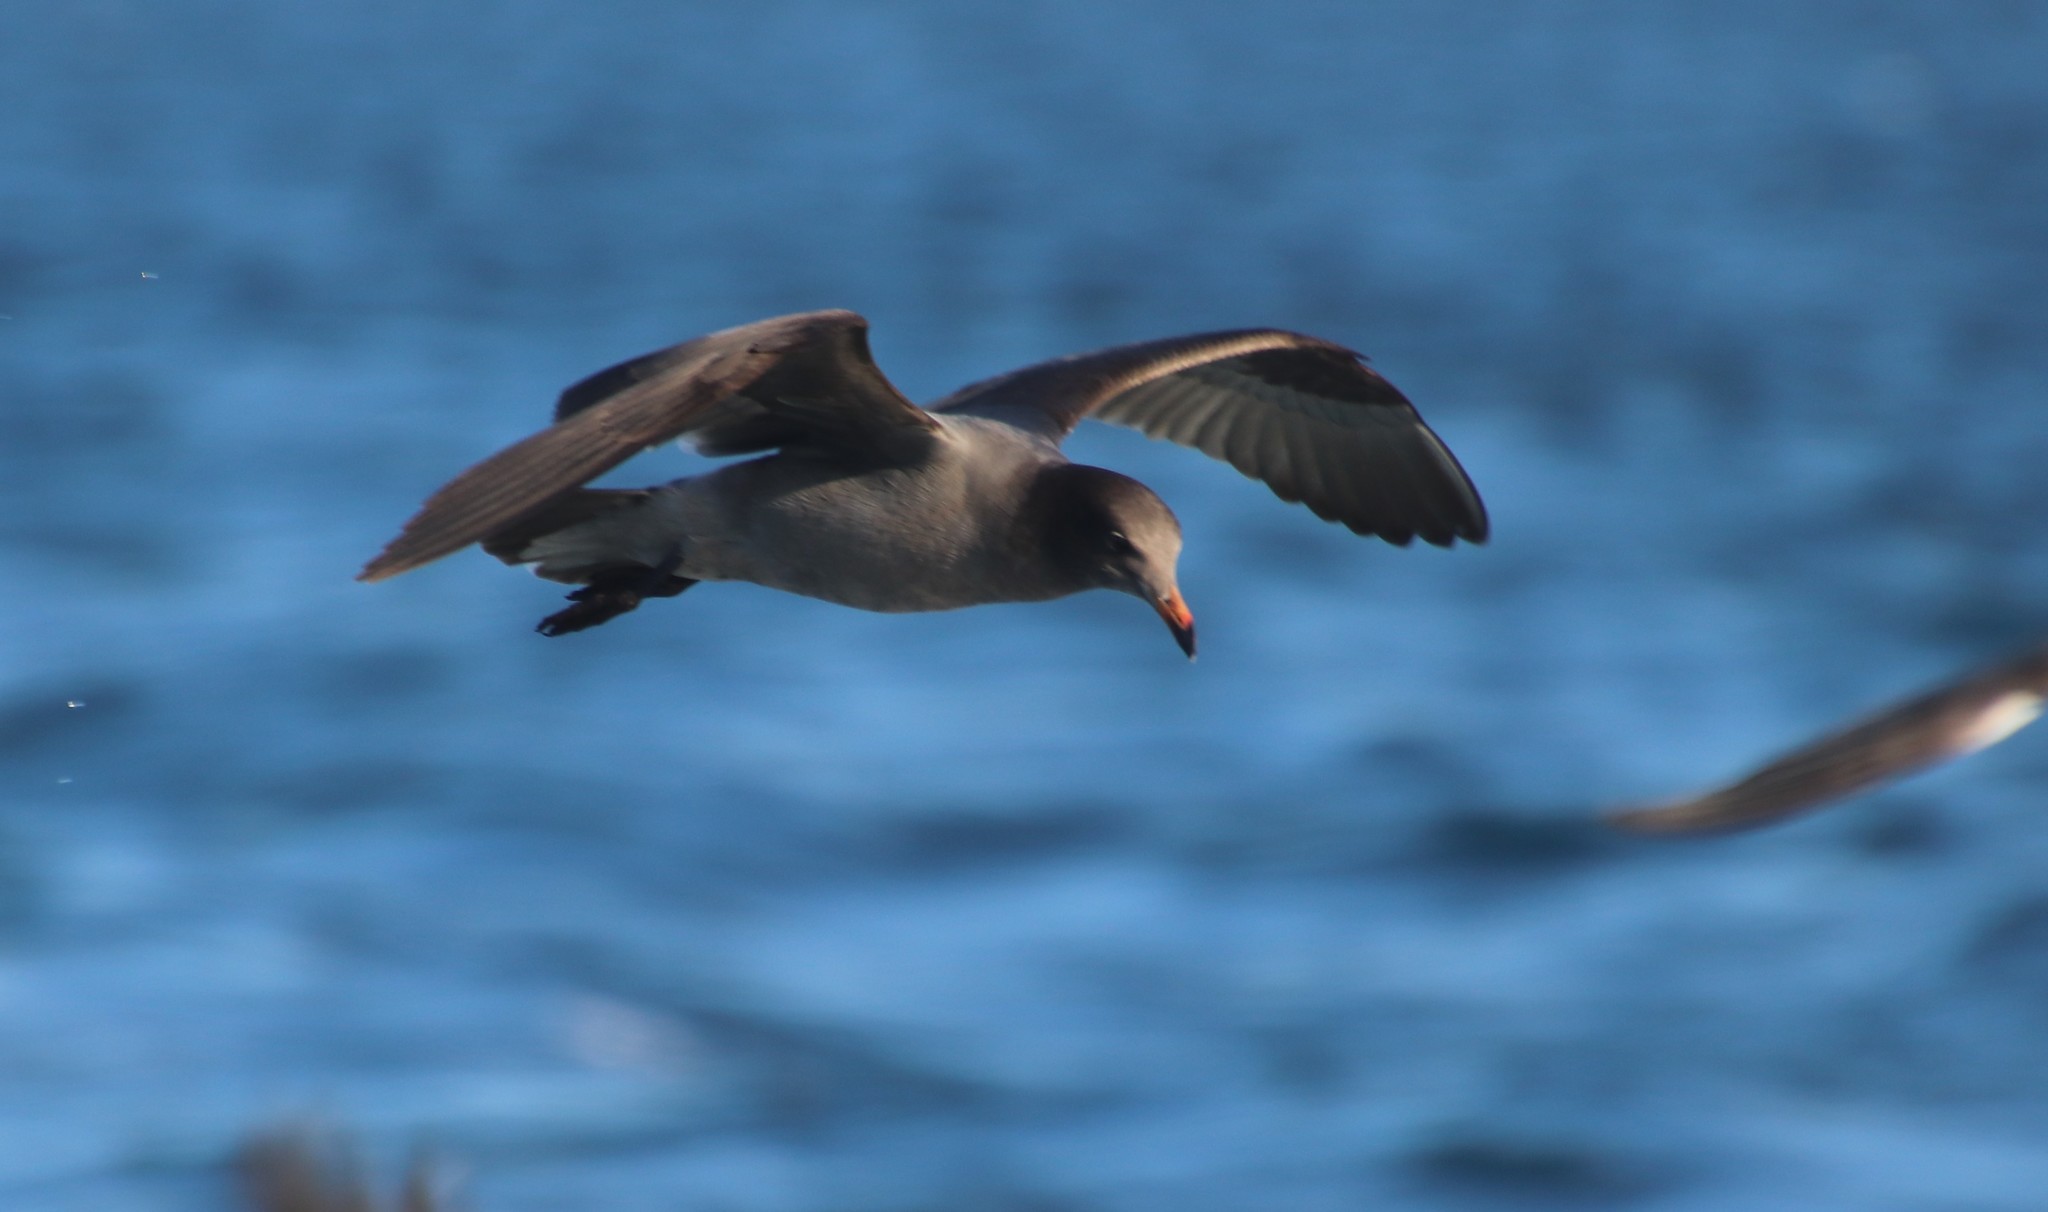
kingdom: Animalia
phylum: Chordata
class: Aves
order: Charadriiformes
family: Laridae
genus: Larus
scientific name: Larus heermanni
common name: Heermann's gull
